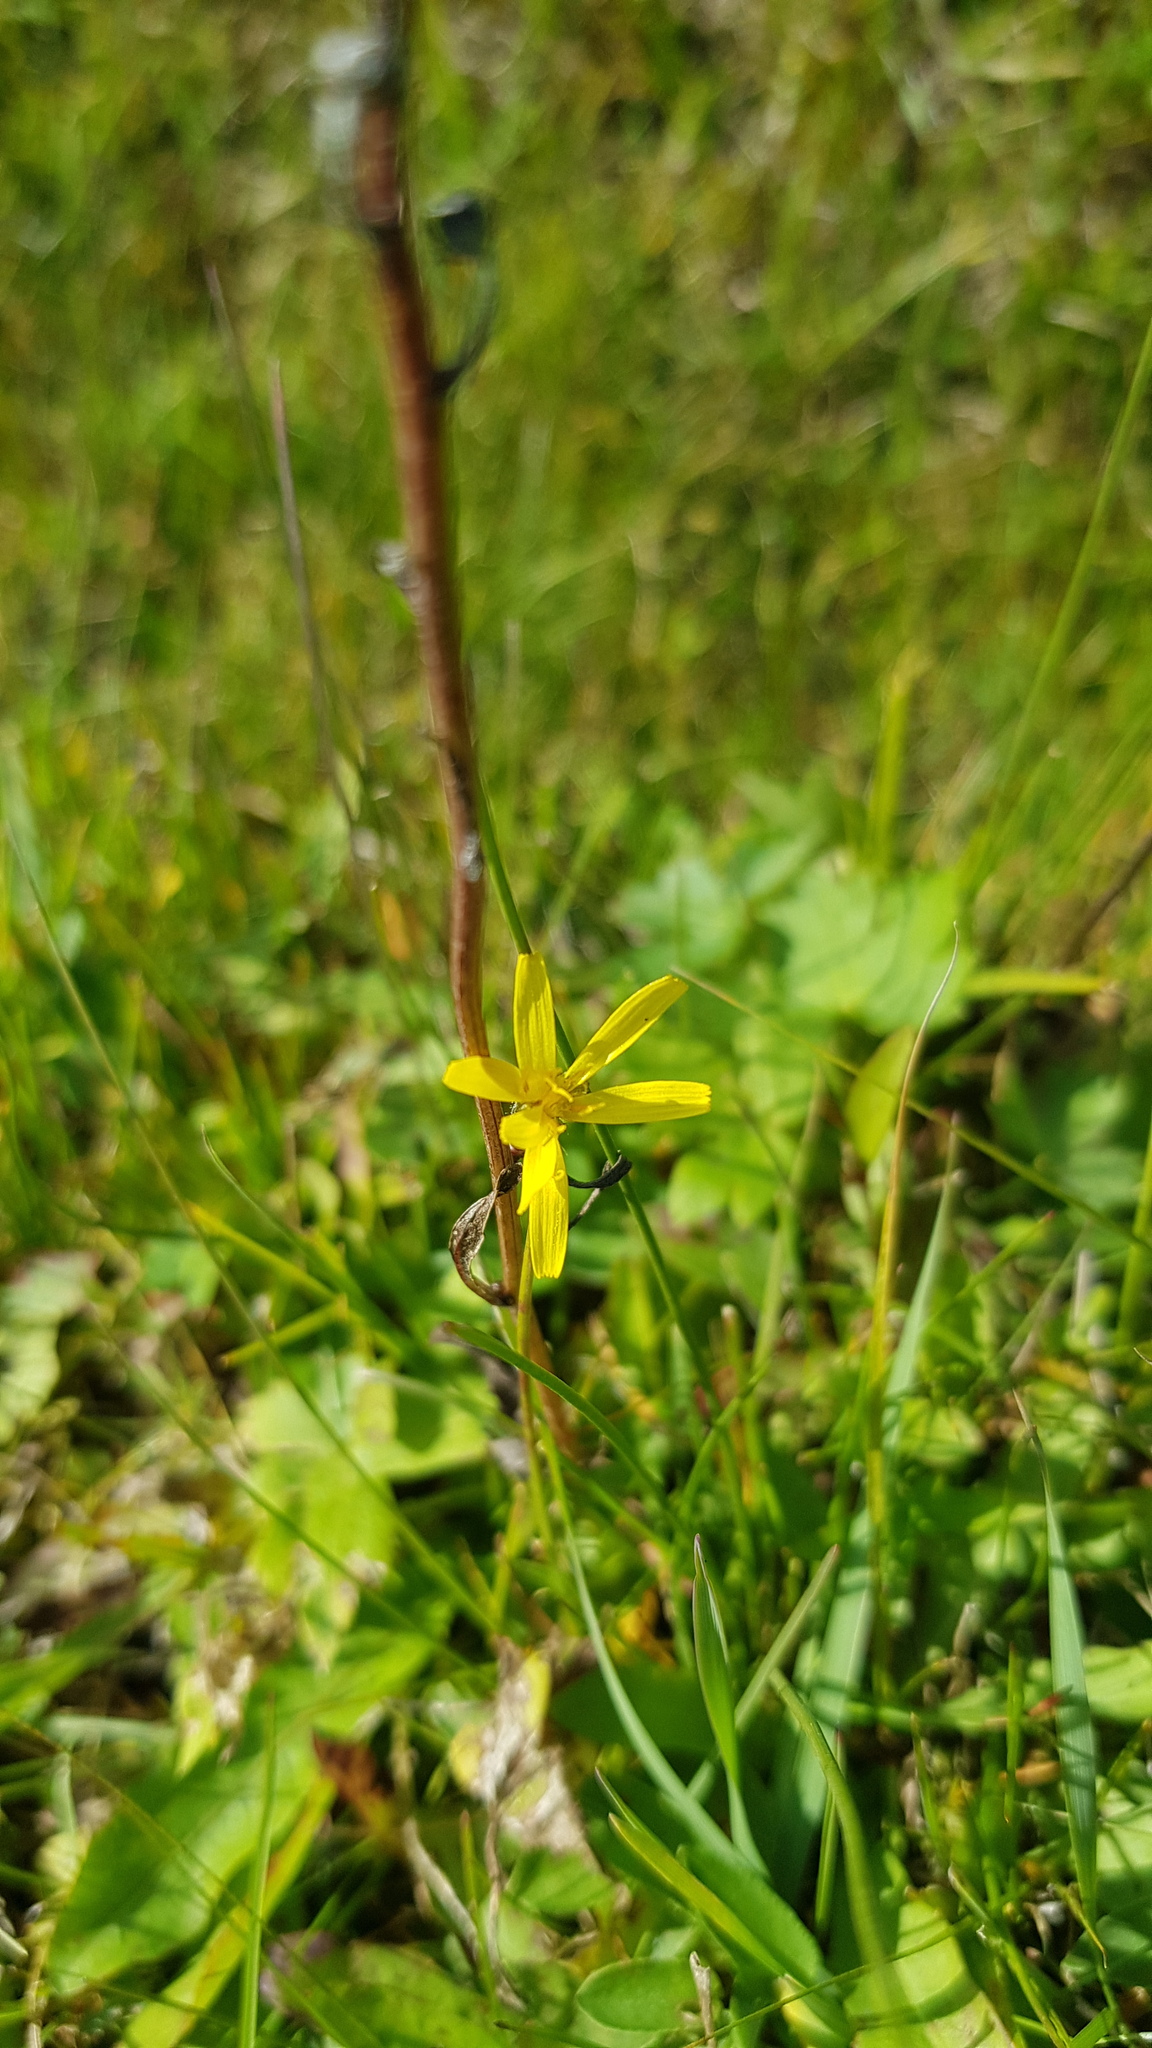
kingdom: Plantae
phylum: Tracheophyta
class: Magnoliopsida
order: Asterales
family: Asteraceae
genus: Crepidiastrum
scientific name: Crepidiastrum tenuifolium
